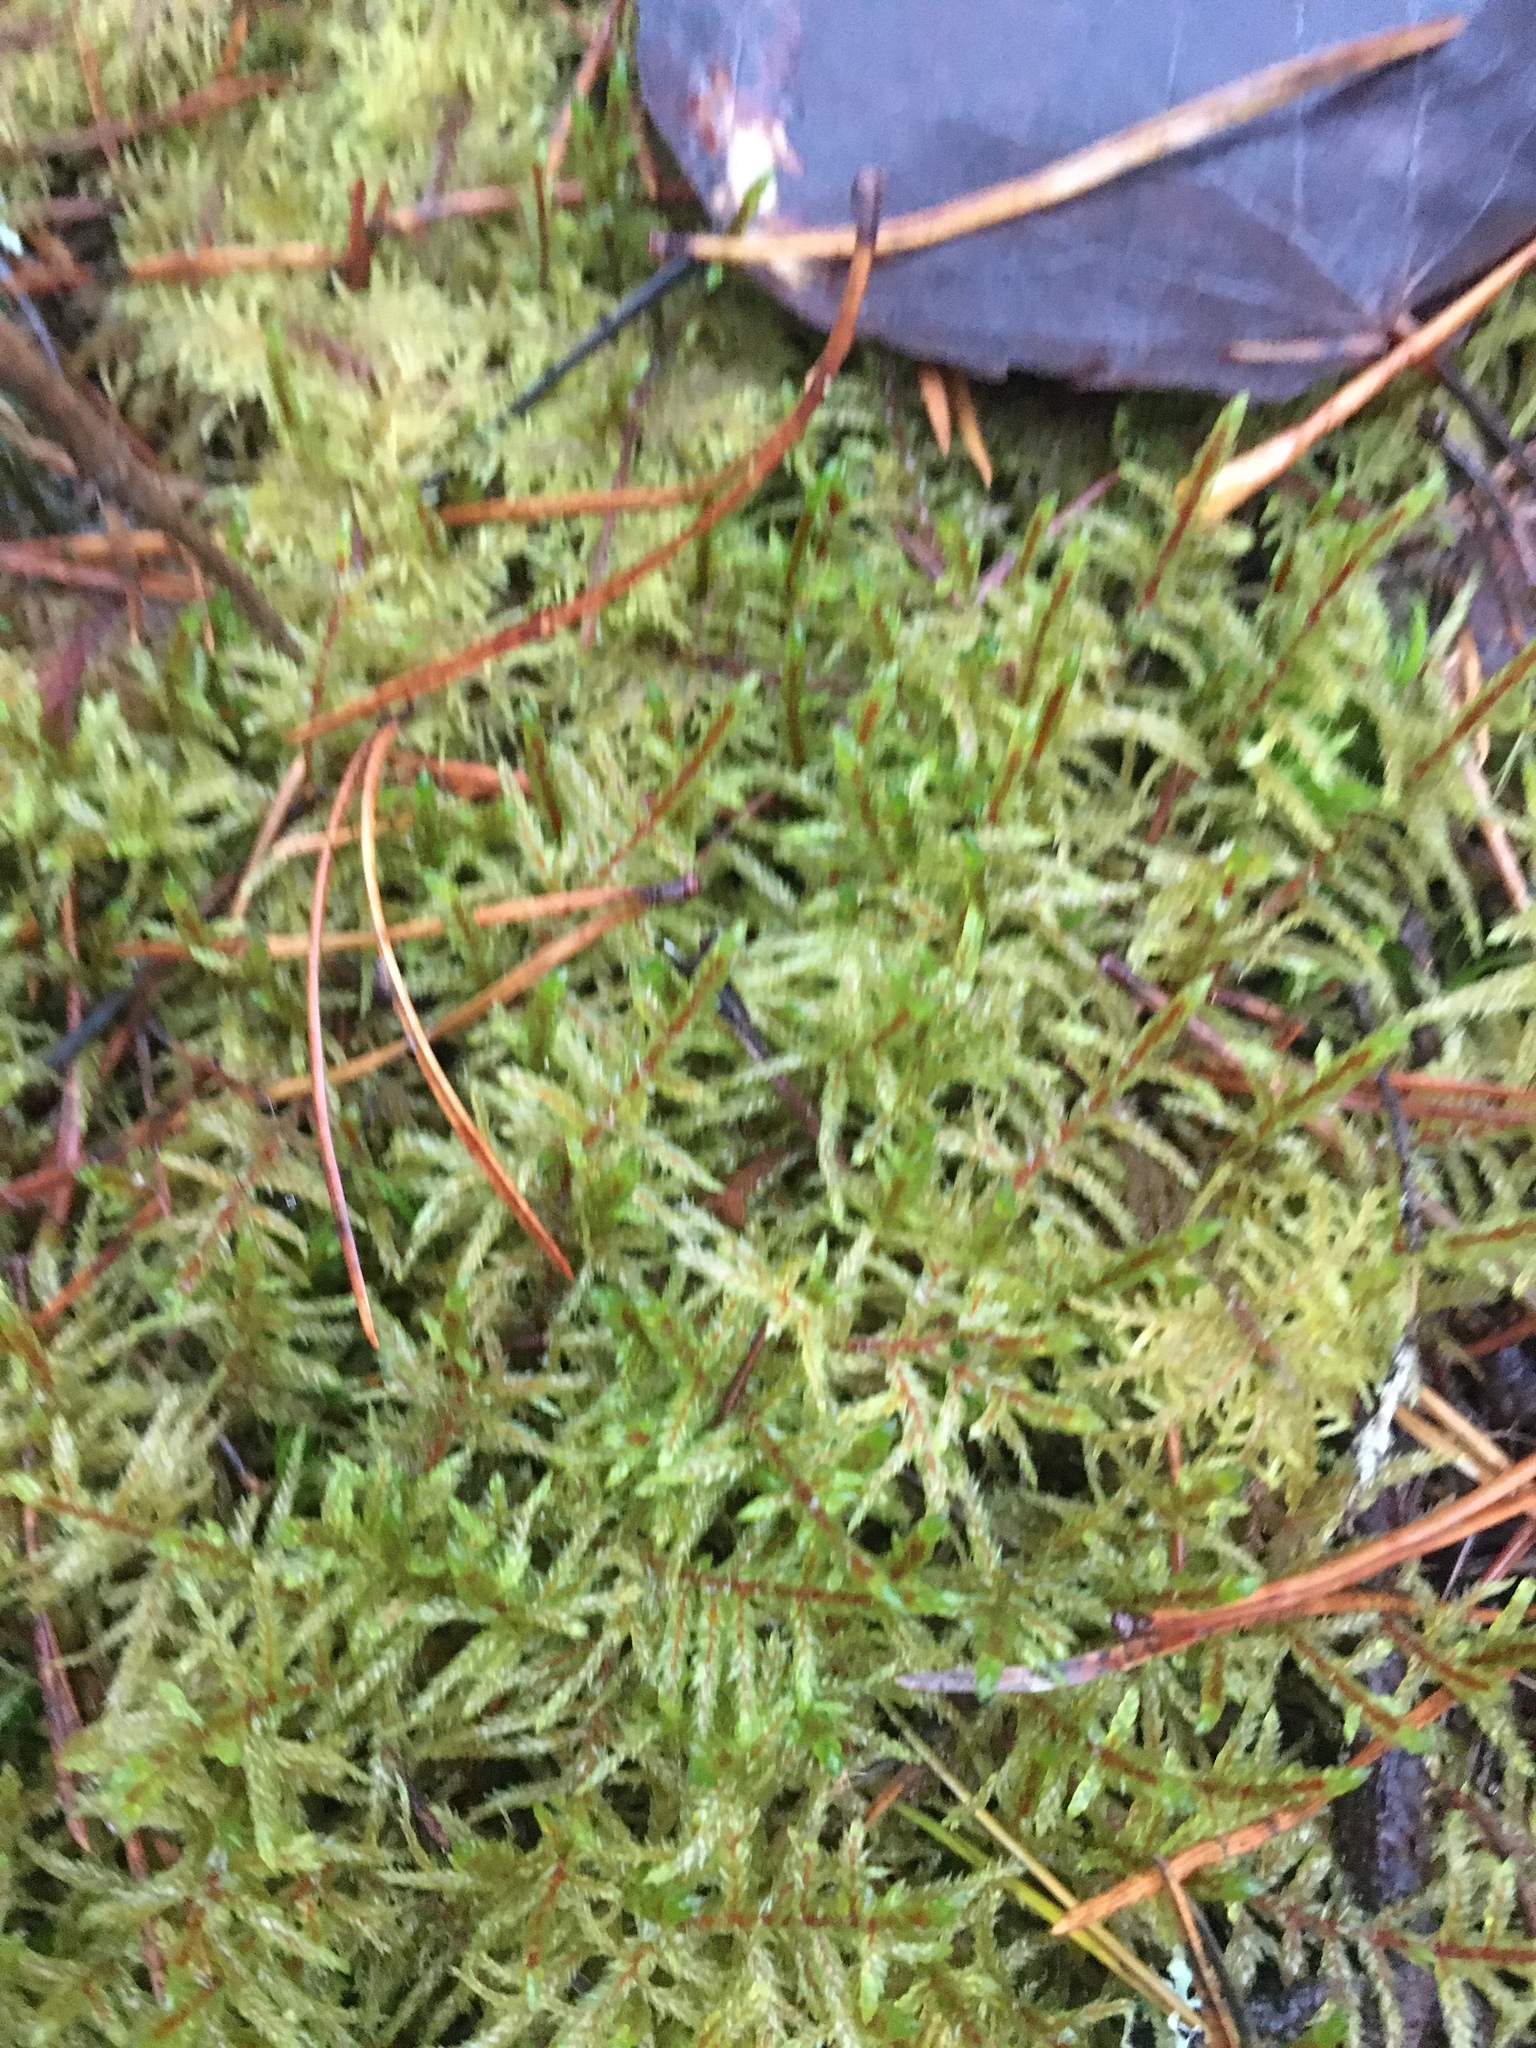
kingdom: Plantae
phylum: Bryophyta
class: Bryopsida
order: Hypnales
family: Hylocomiaceae
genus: Pleurozium
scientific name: Pleurozium schreberi
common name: Red-stemmed feather moss
